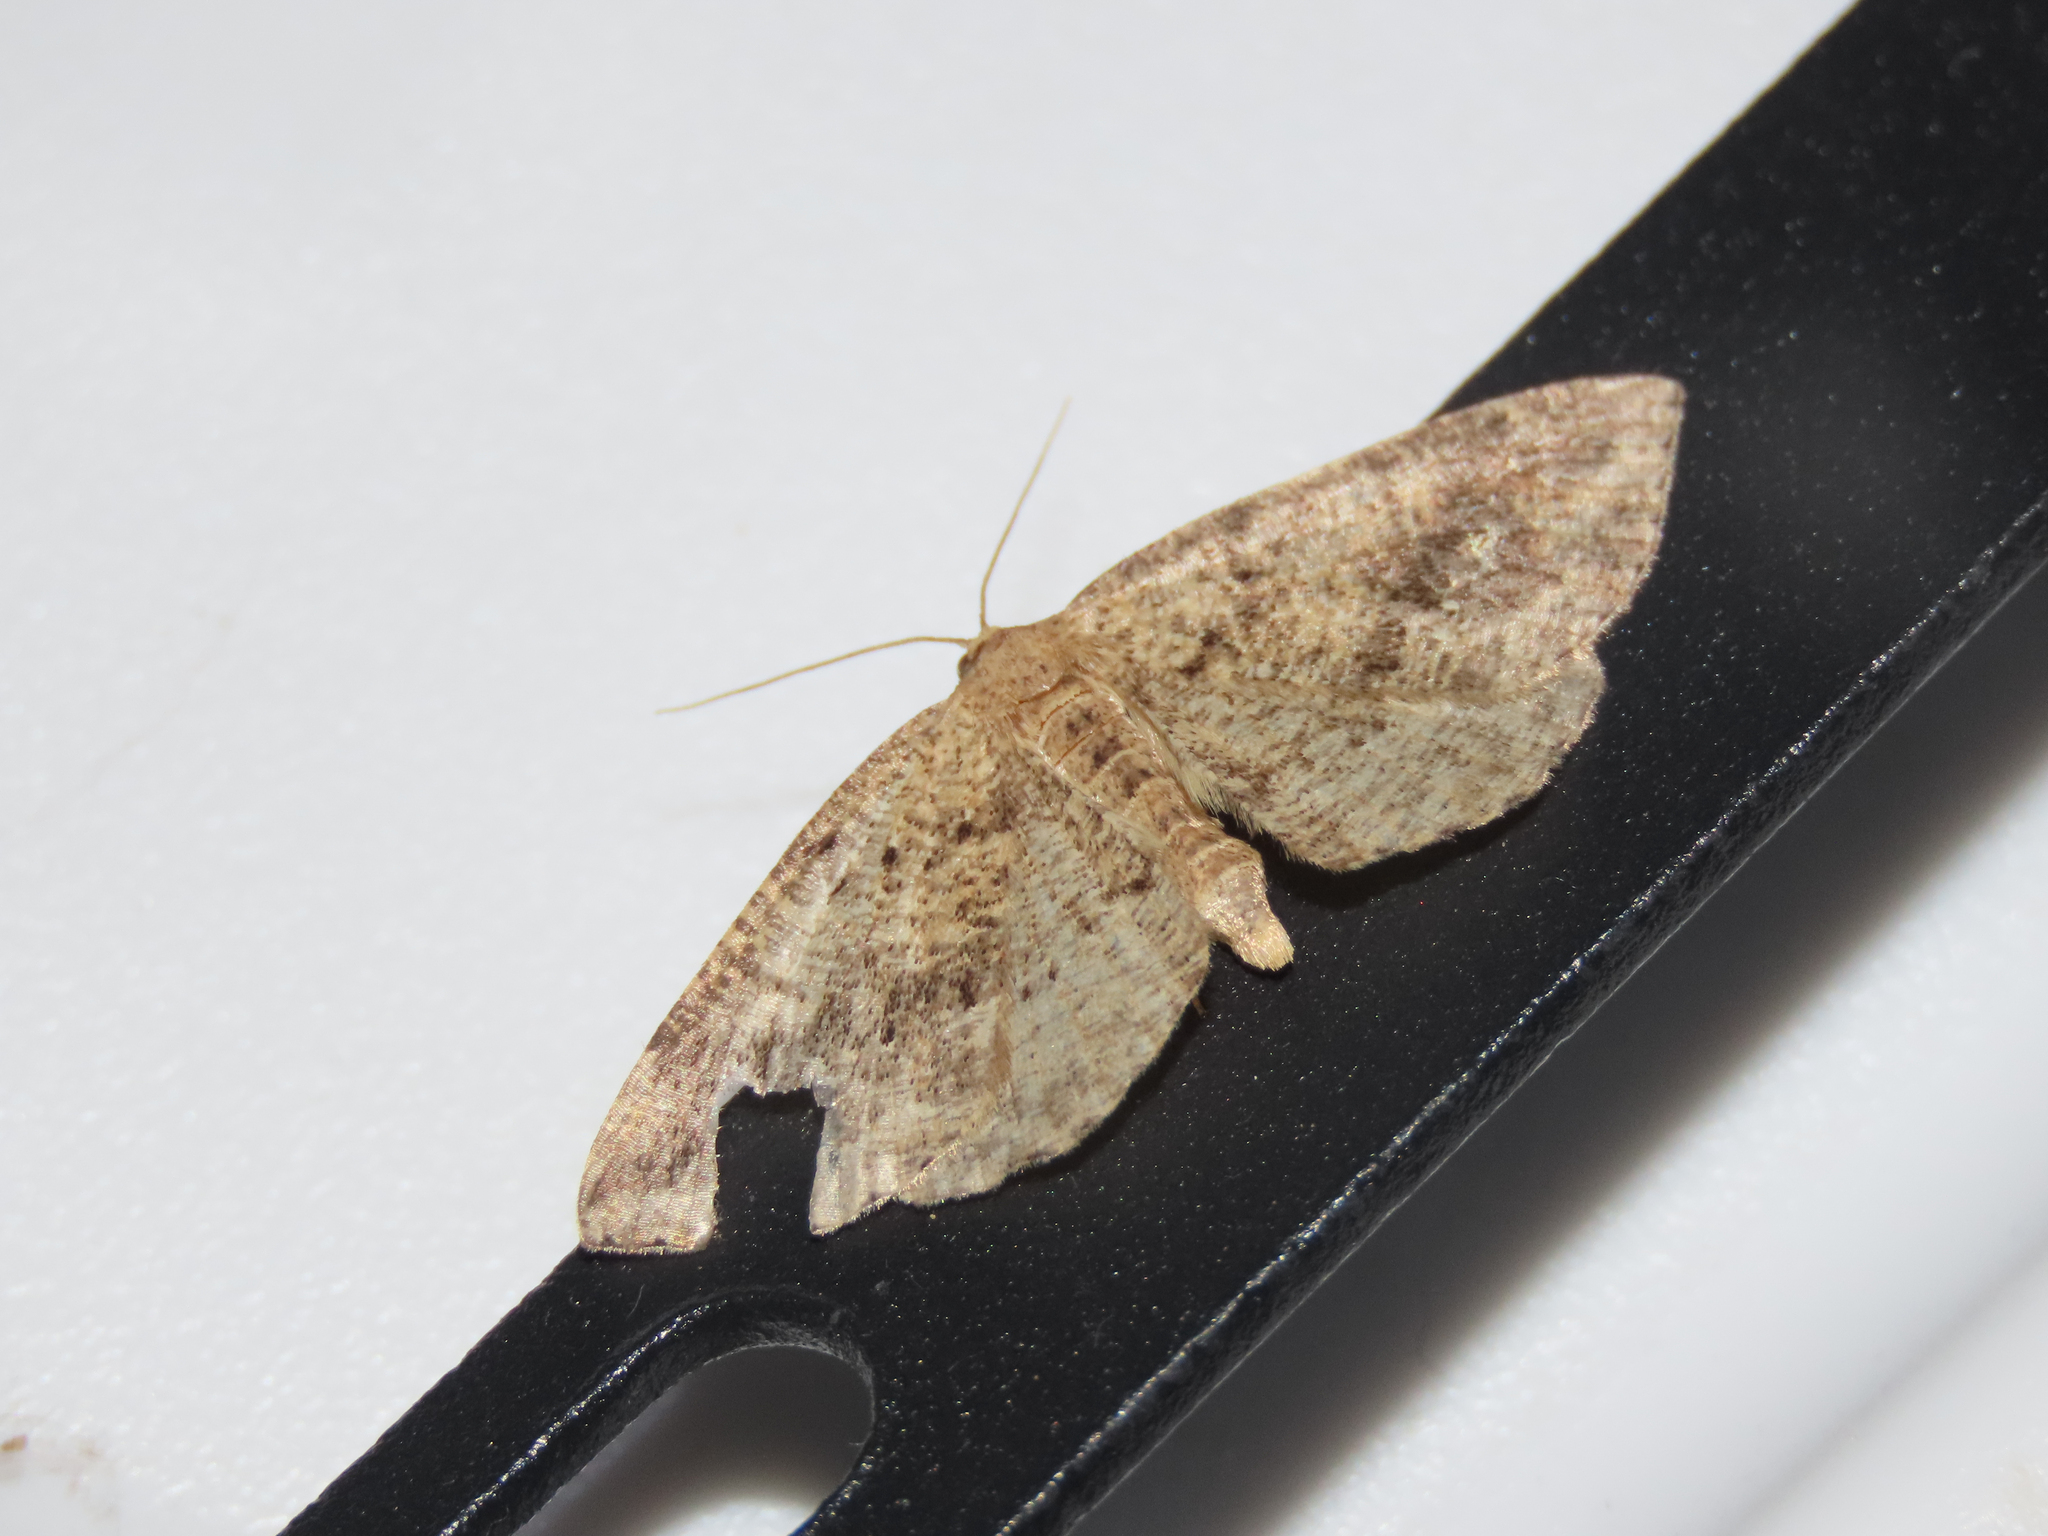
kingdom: Animalia
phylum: Arthropoda
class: Insecta
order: Lepidoptera
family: Geometridae
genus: Homochlodes
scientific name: Homochlodes fritillaria
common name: Pale homochlodes
